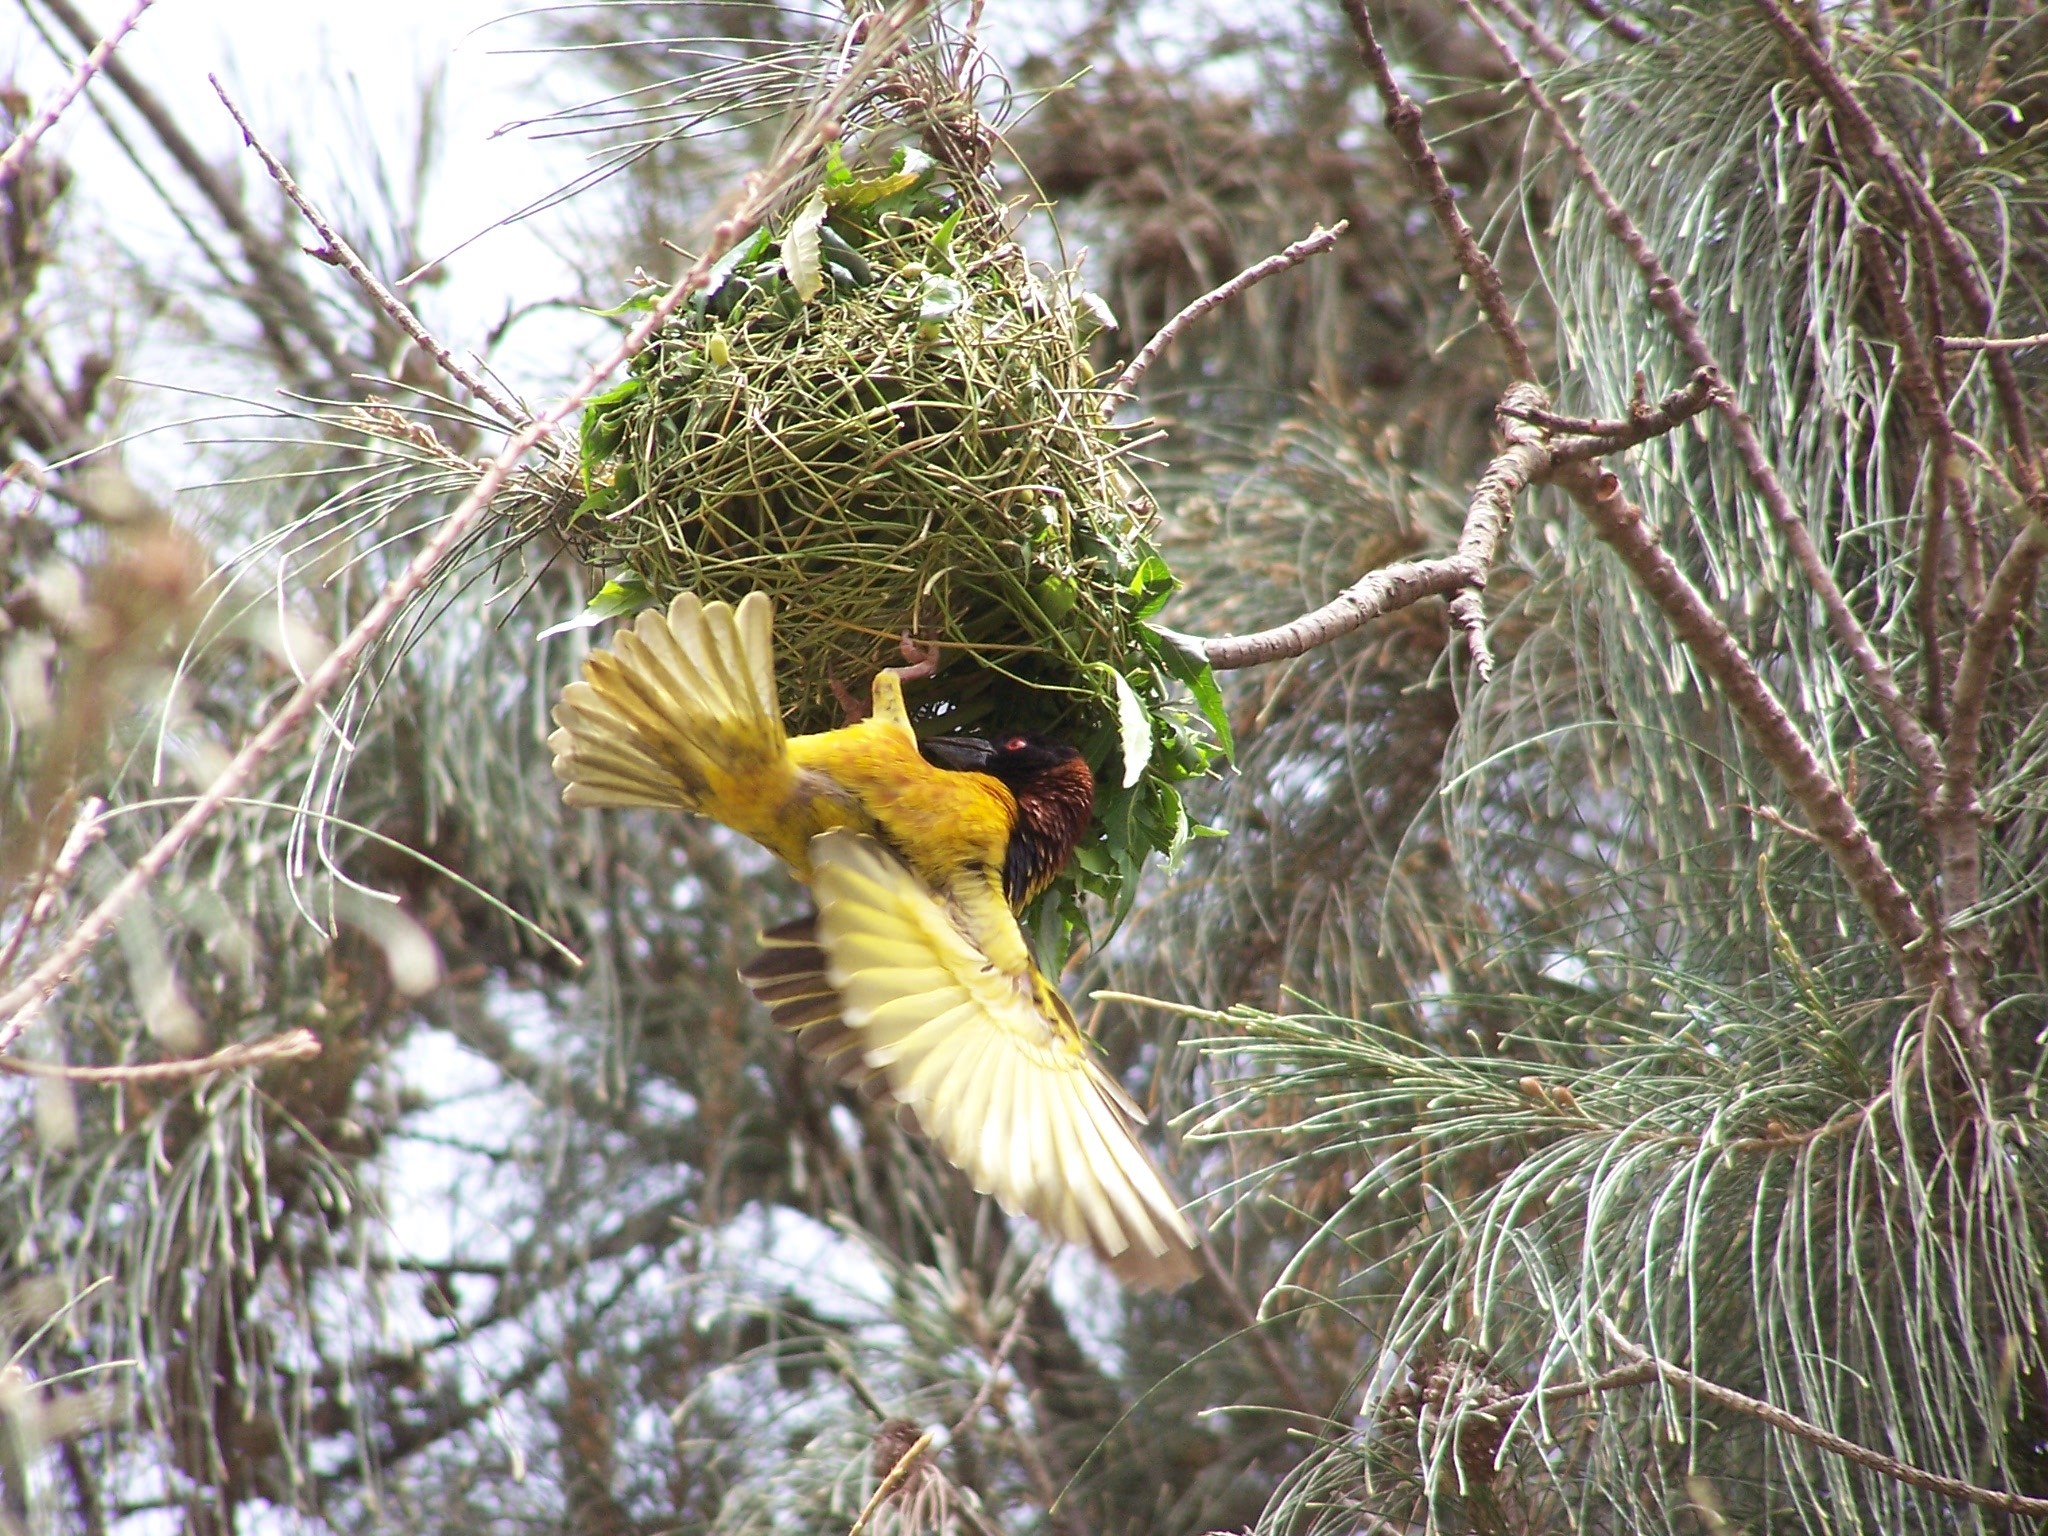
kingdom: Animalia
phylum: Chordata
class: Aves
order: Passeriformes
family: Ploceidae
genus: Ploceus
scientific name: Ploceus cucullatus
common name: Village weaver
